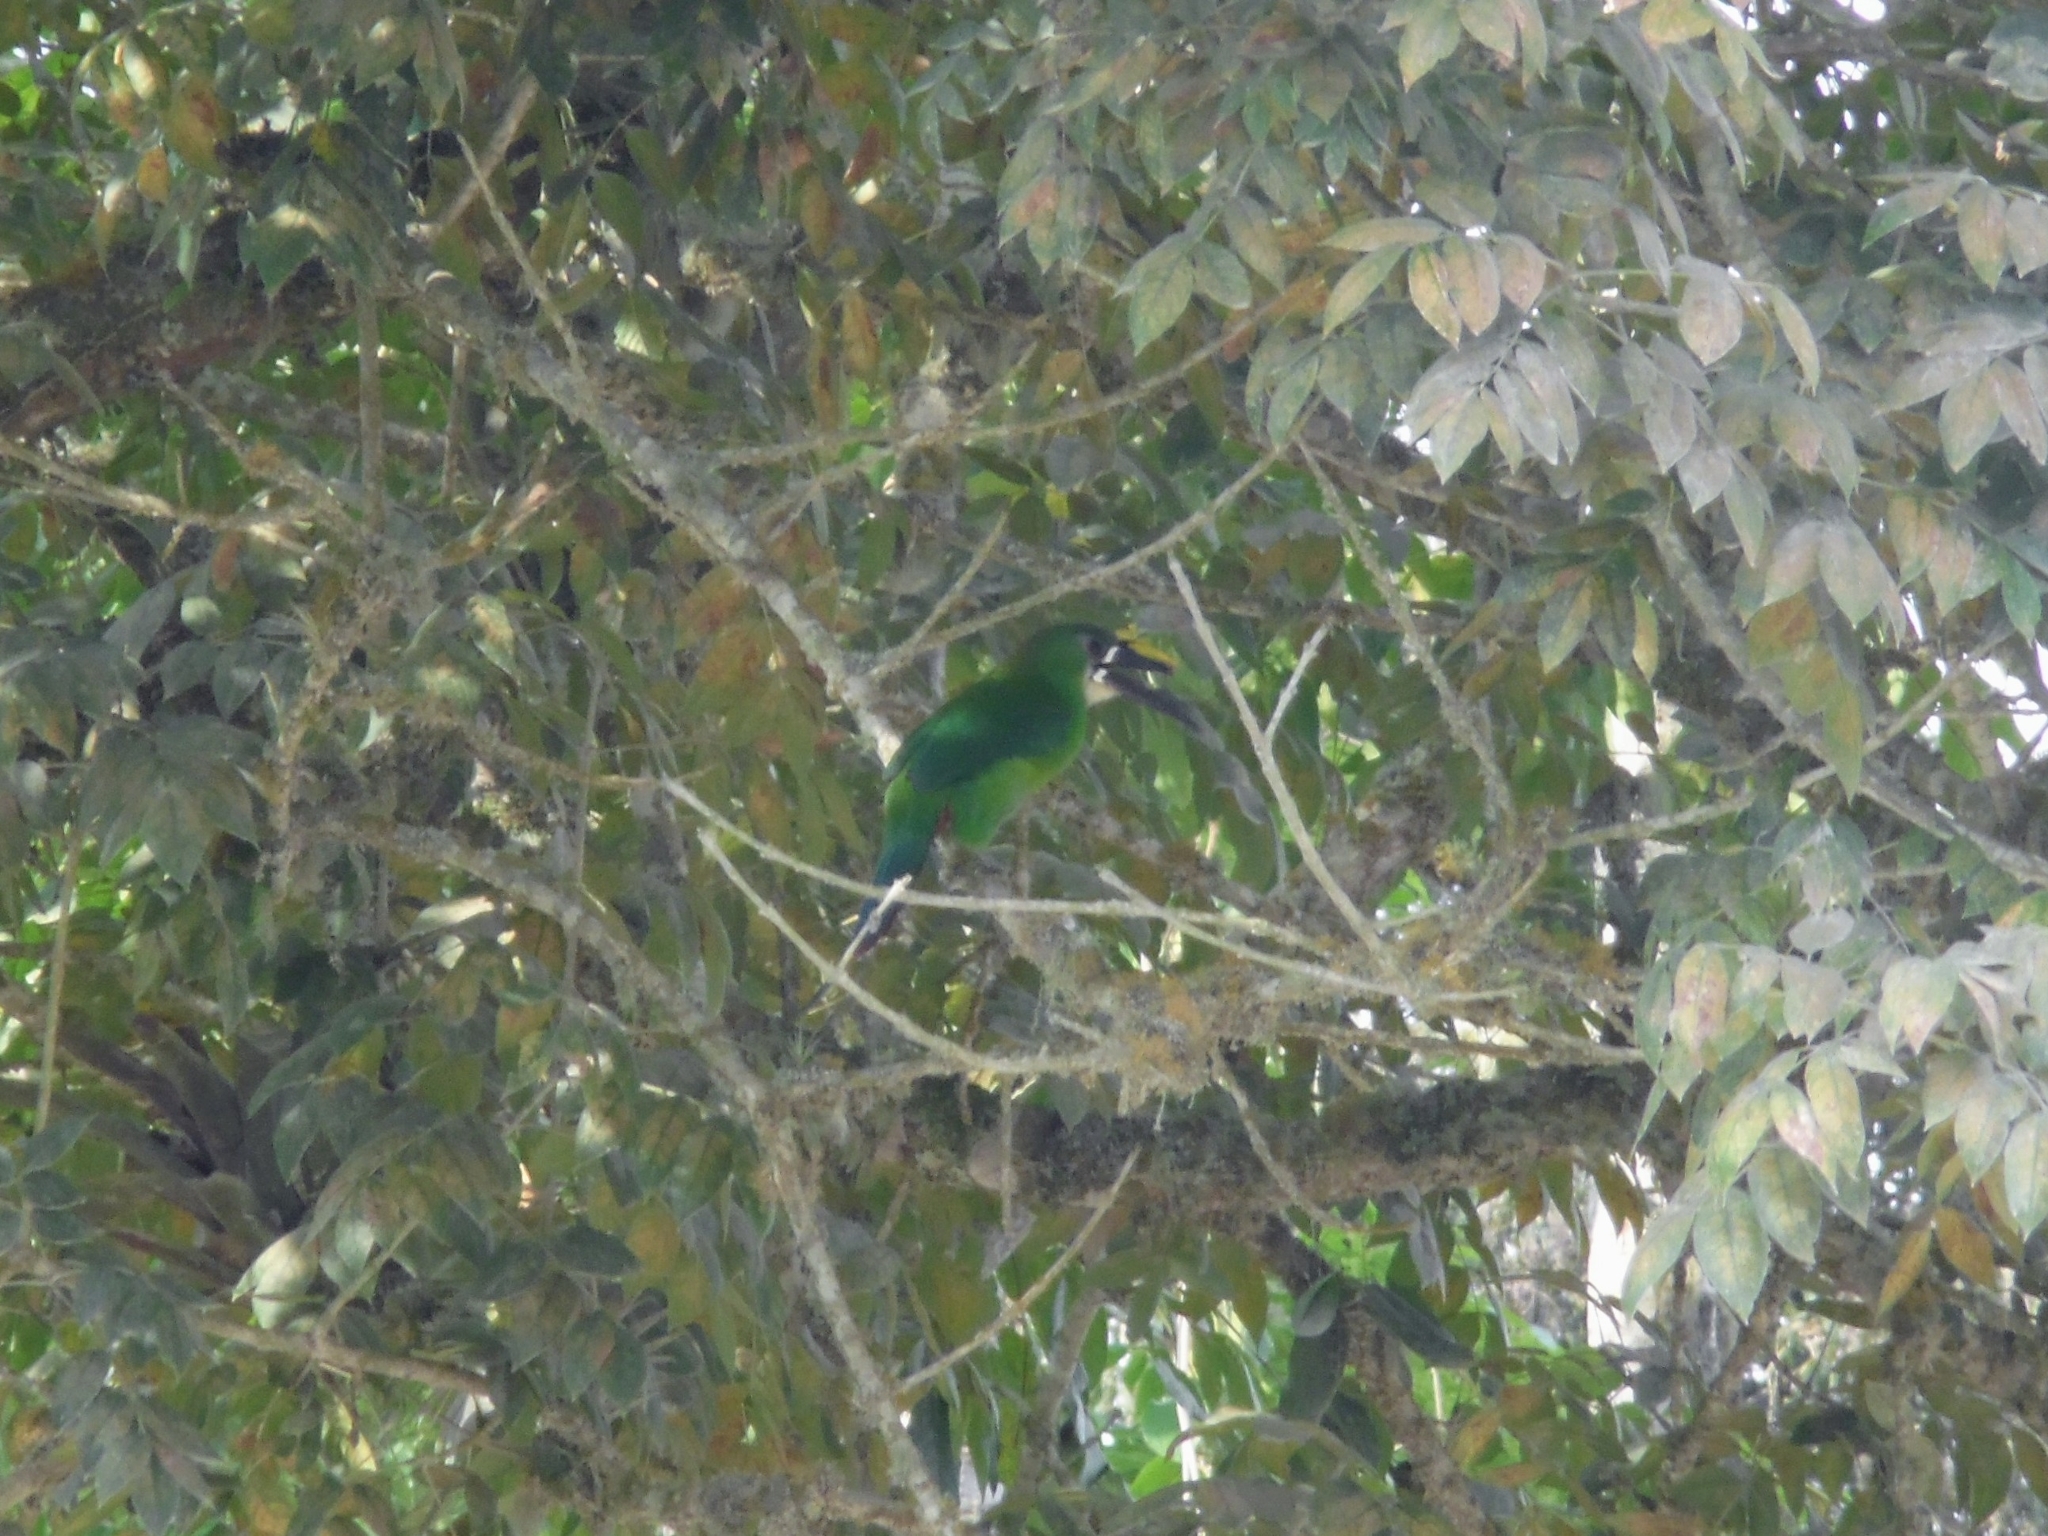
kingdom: Animalia
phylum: Chordata
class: Aves
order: Piciformes
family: Ramphastidae
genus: Aulacorhynchus
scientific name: Aulacorhynchus albivitta
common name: White-throated toucanet
